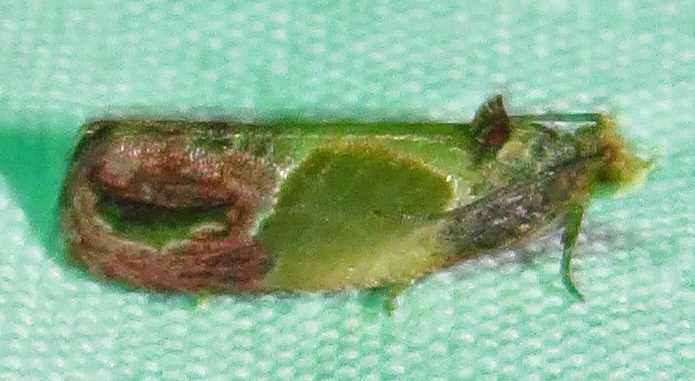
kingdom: Animalia
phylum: Arthropoda
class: Insecta
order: Lepidoptera
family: Tortricidae
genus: Eumarozia
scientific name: Eumarozia malachitana
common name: Sculptured moth
